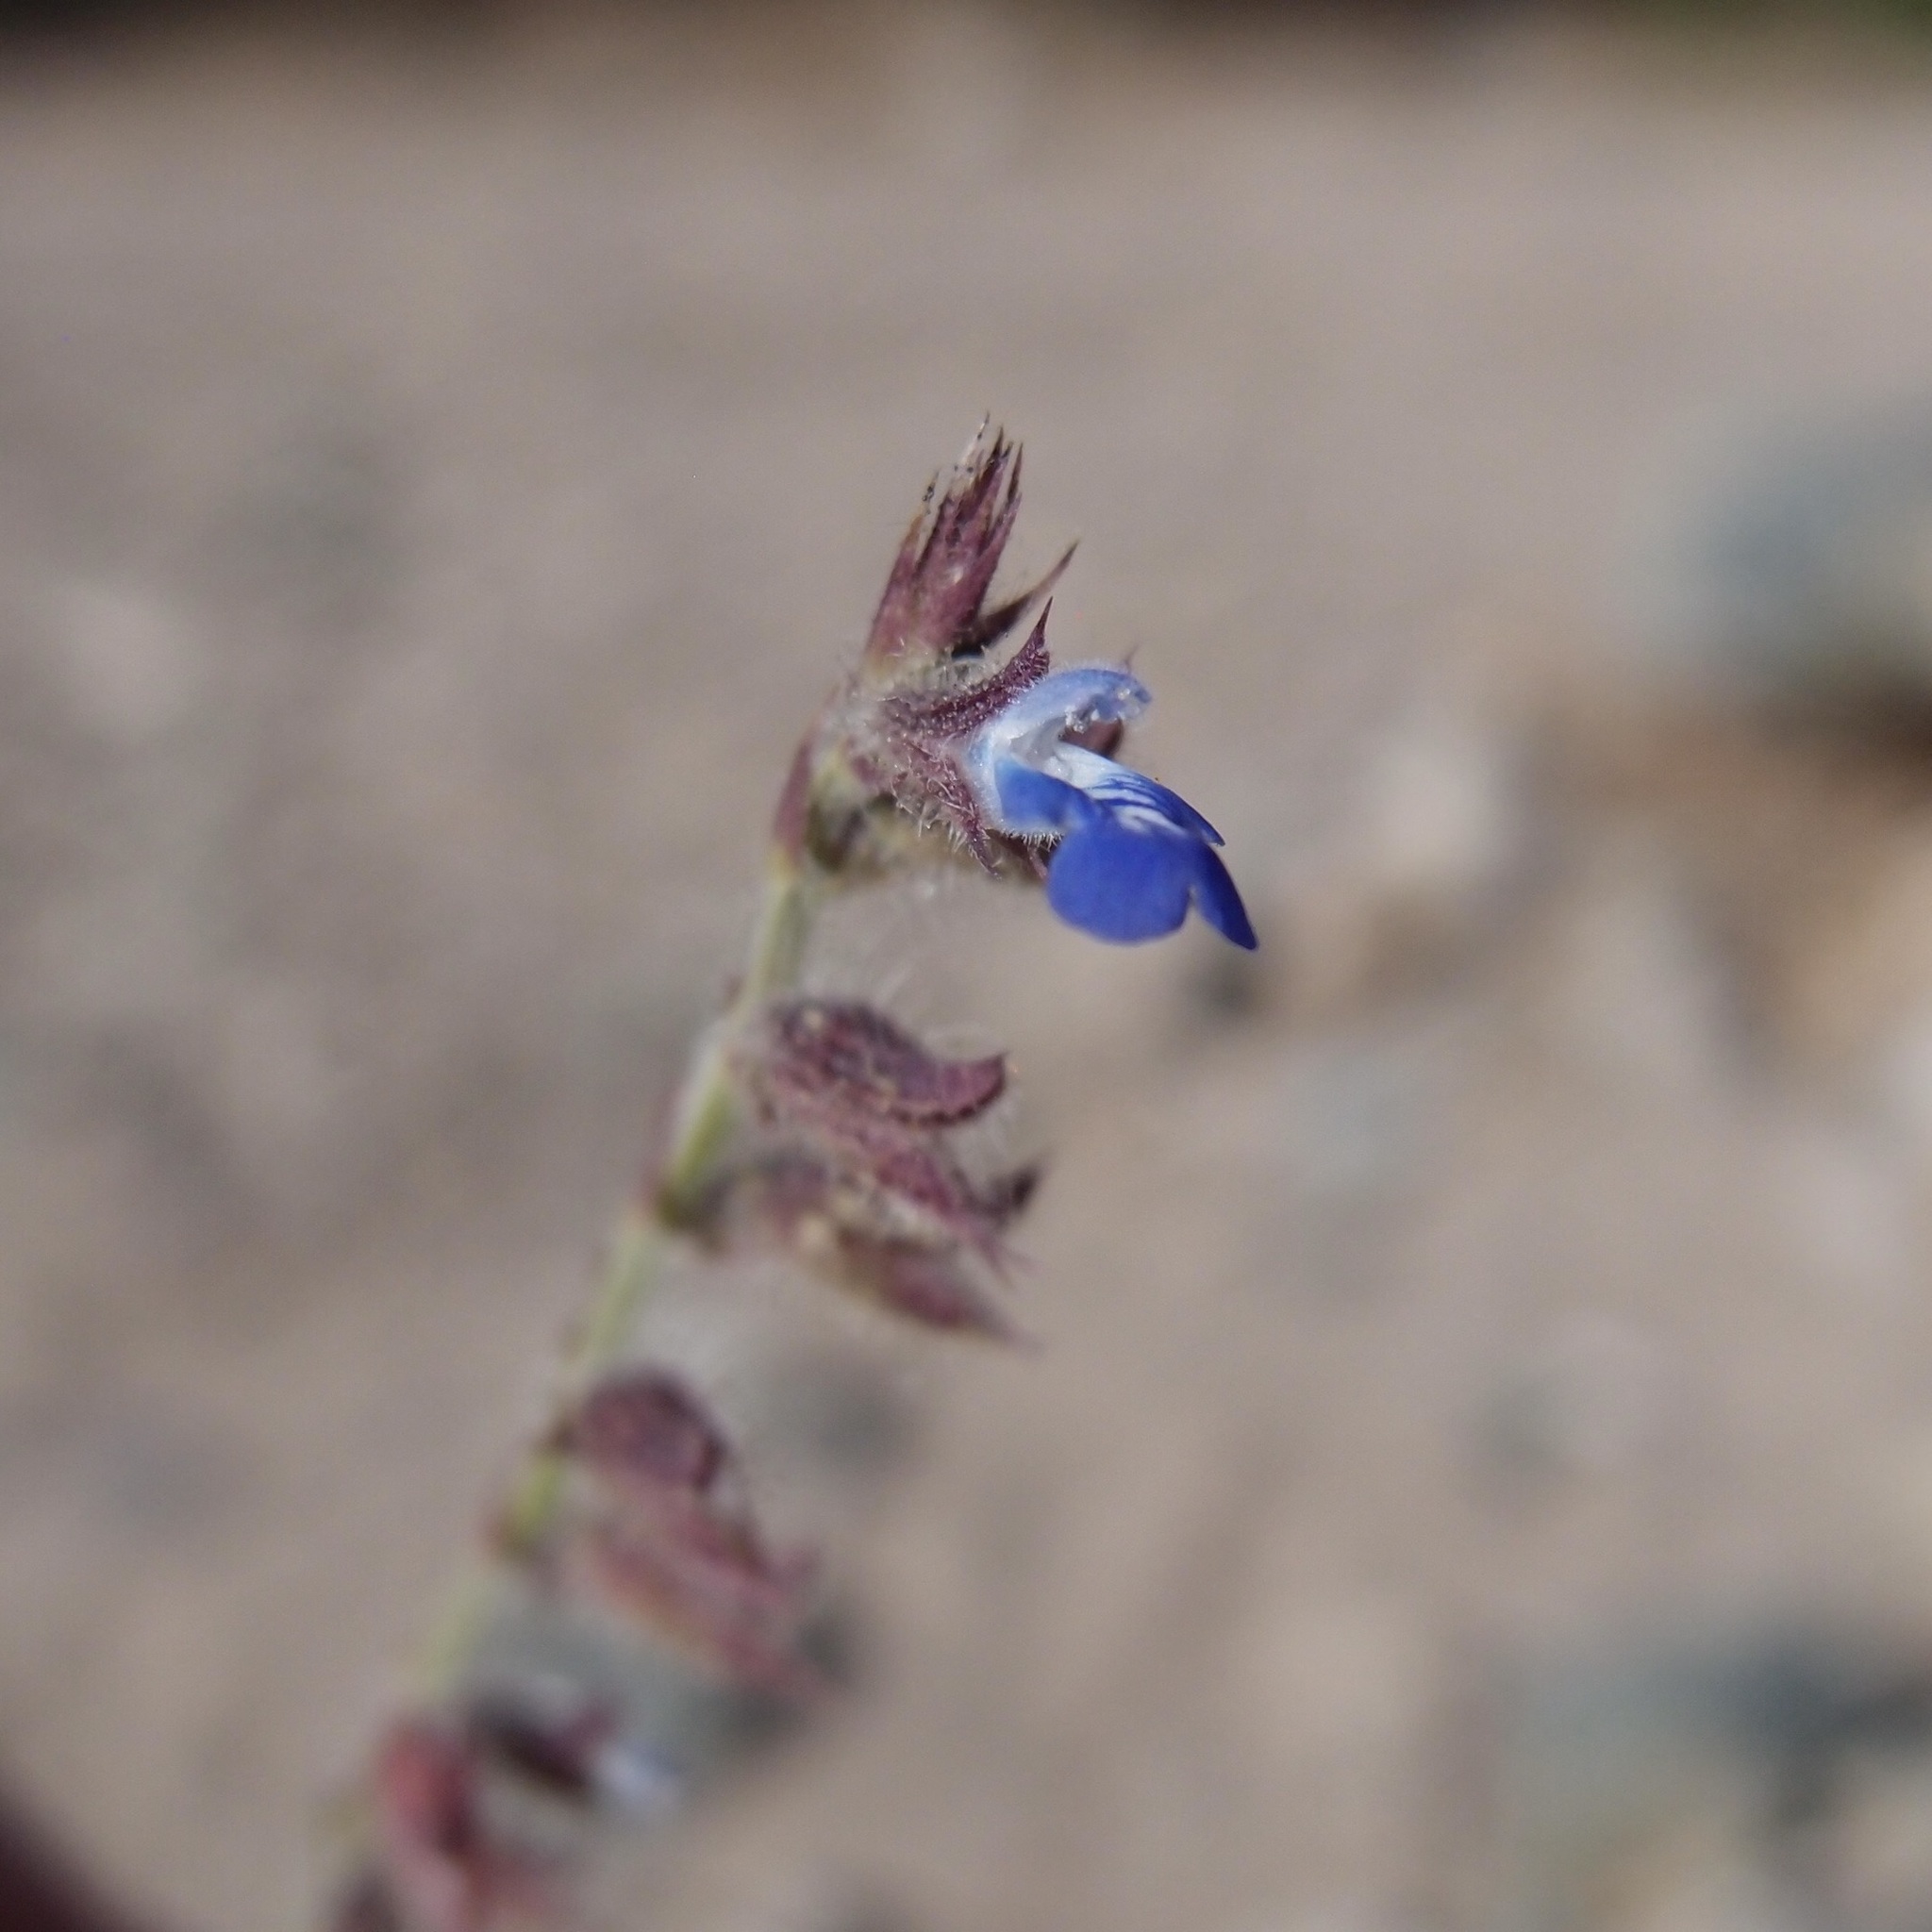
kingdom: Plantae
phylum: Tracheophyta
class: Magnoliopsida
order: Lamiales
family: Lamiaceae
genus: Salvia
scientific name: Salvia misella
